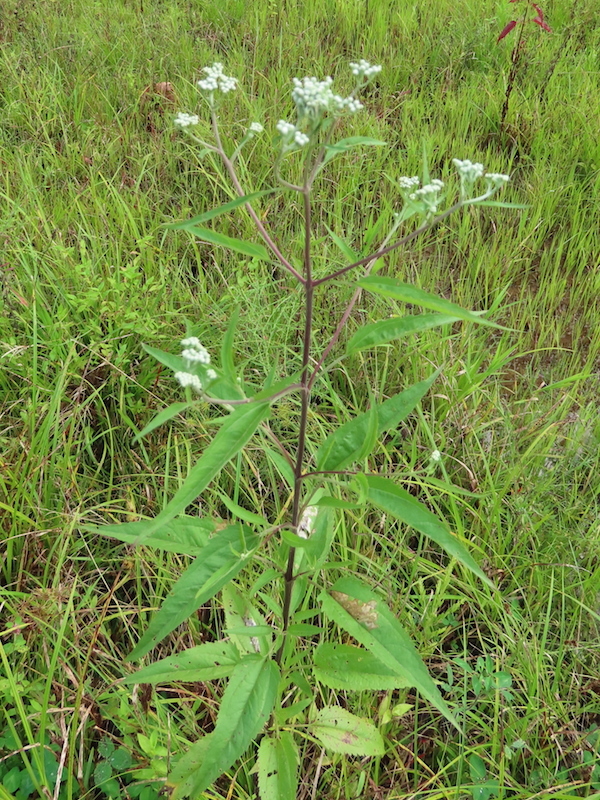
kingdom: Plantae
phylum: Tracheophyta
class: Magnoliopsida
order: Asterales
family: Asteraceae
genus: Eupatorium
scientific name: Eupatorium serotinum
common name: Late boneset
